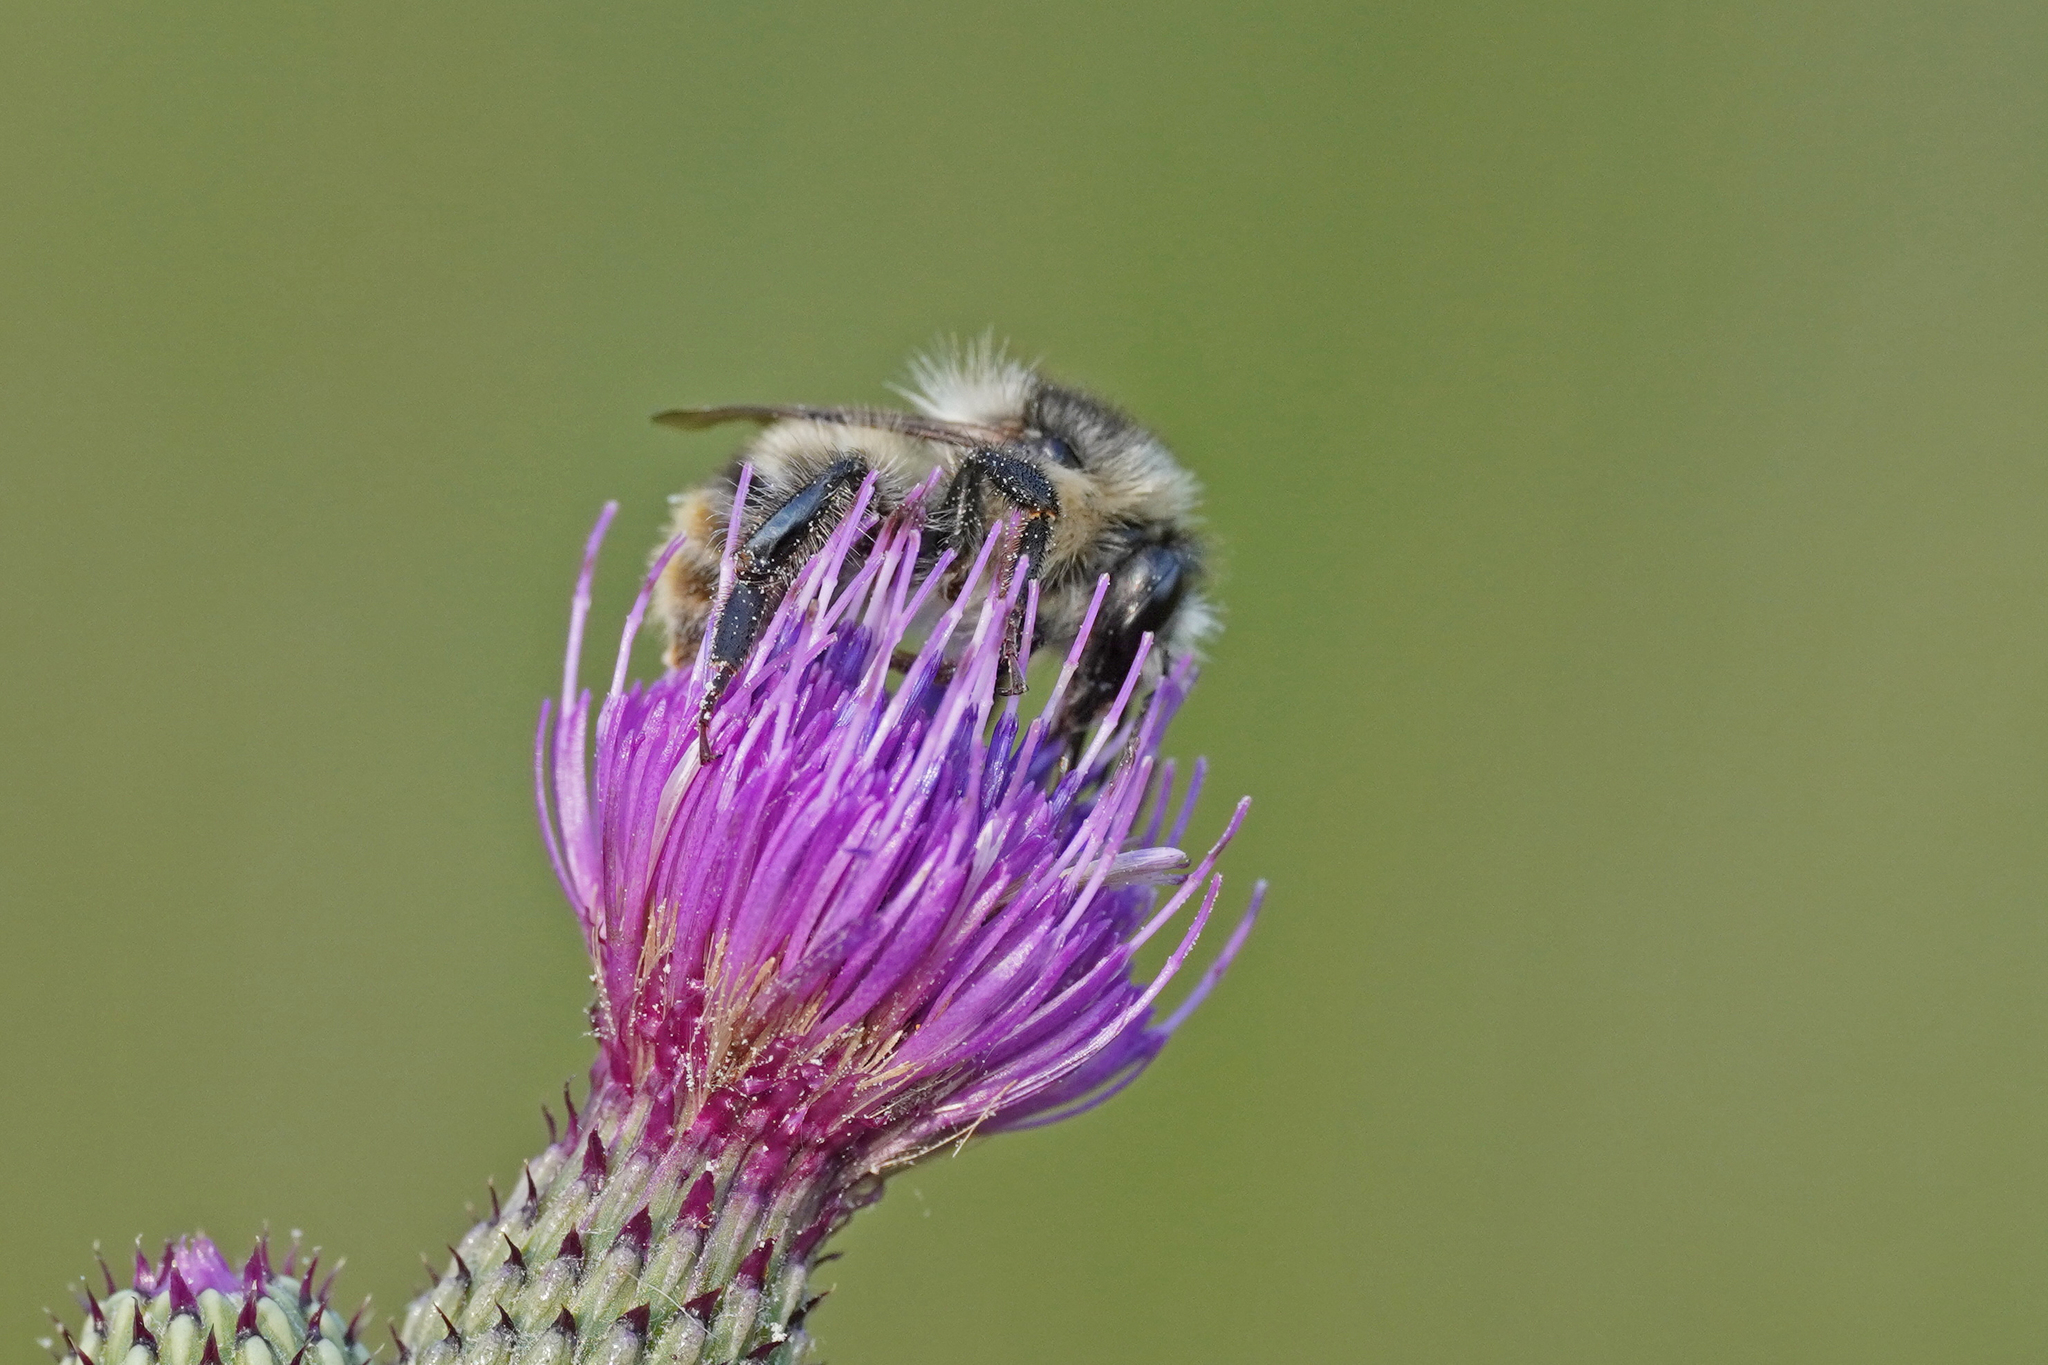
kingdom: Animalia
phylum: Arthropoda
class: Insecta
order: Hymenoptera
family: Apidae
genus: Bombus
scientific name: Bombus sylvarum
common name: Shrill carder bee
